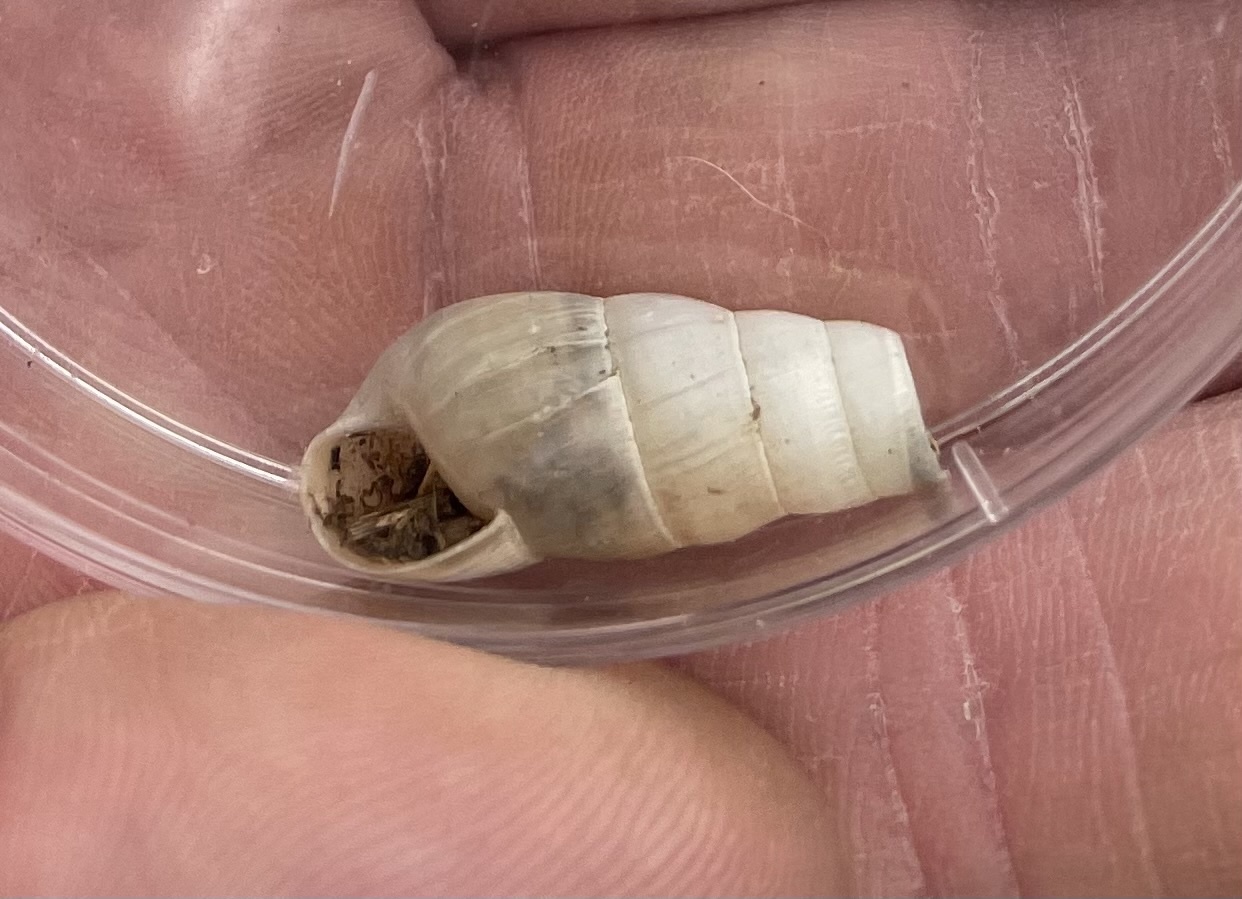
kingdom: Animalia
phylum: Mollusca
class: Gastropoda
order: Stylommatophora
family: Achatinidae
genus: Rumina
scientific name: Rumina decollata
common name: Decollate snail
